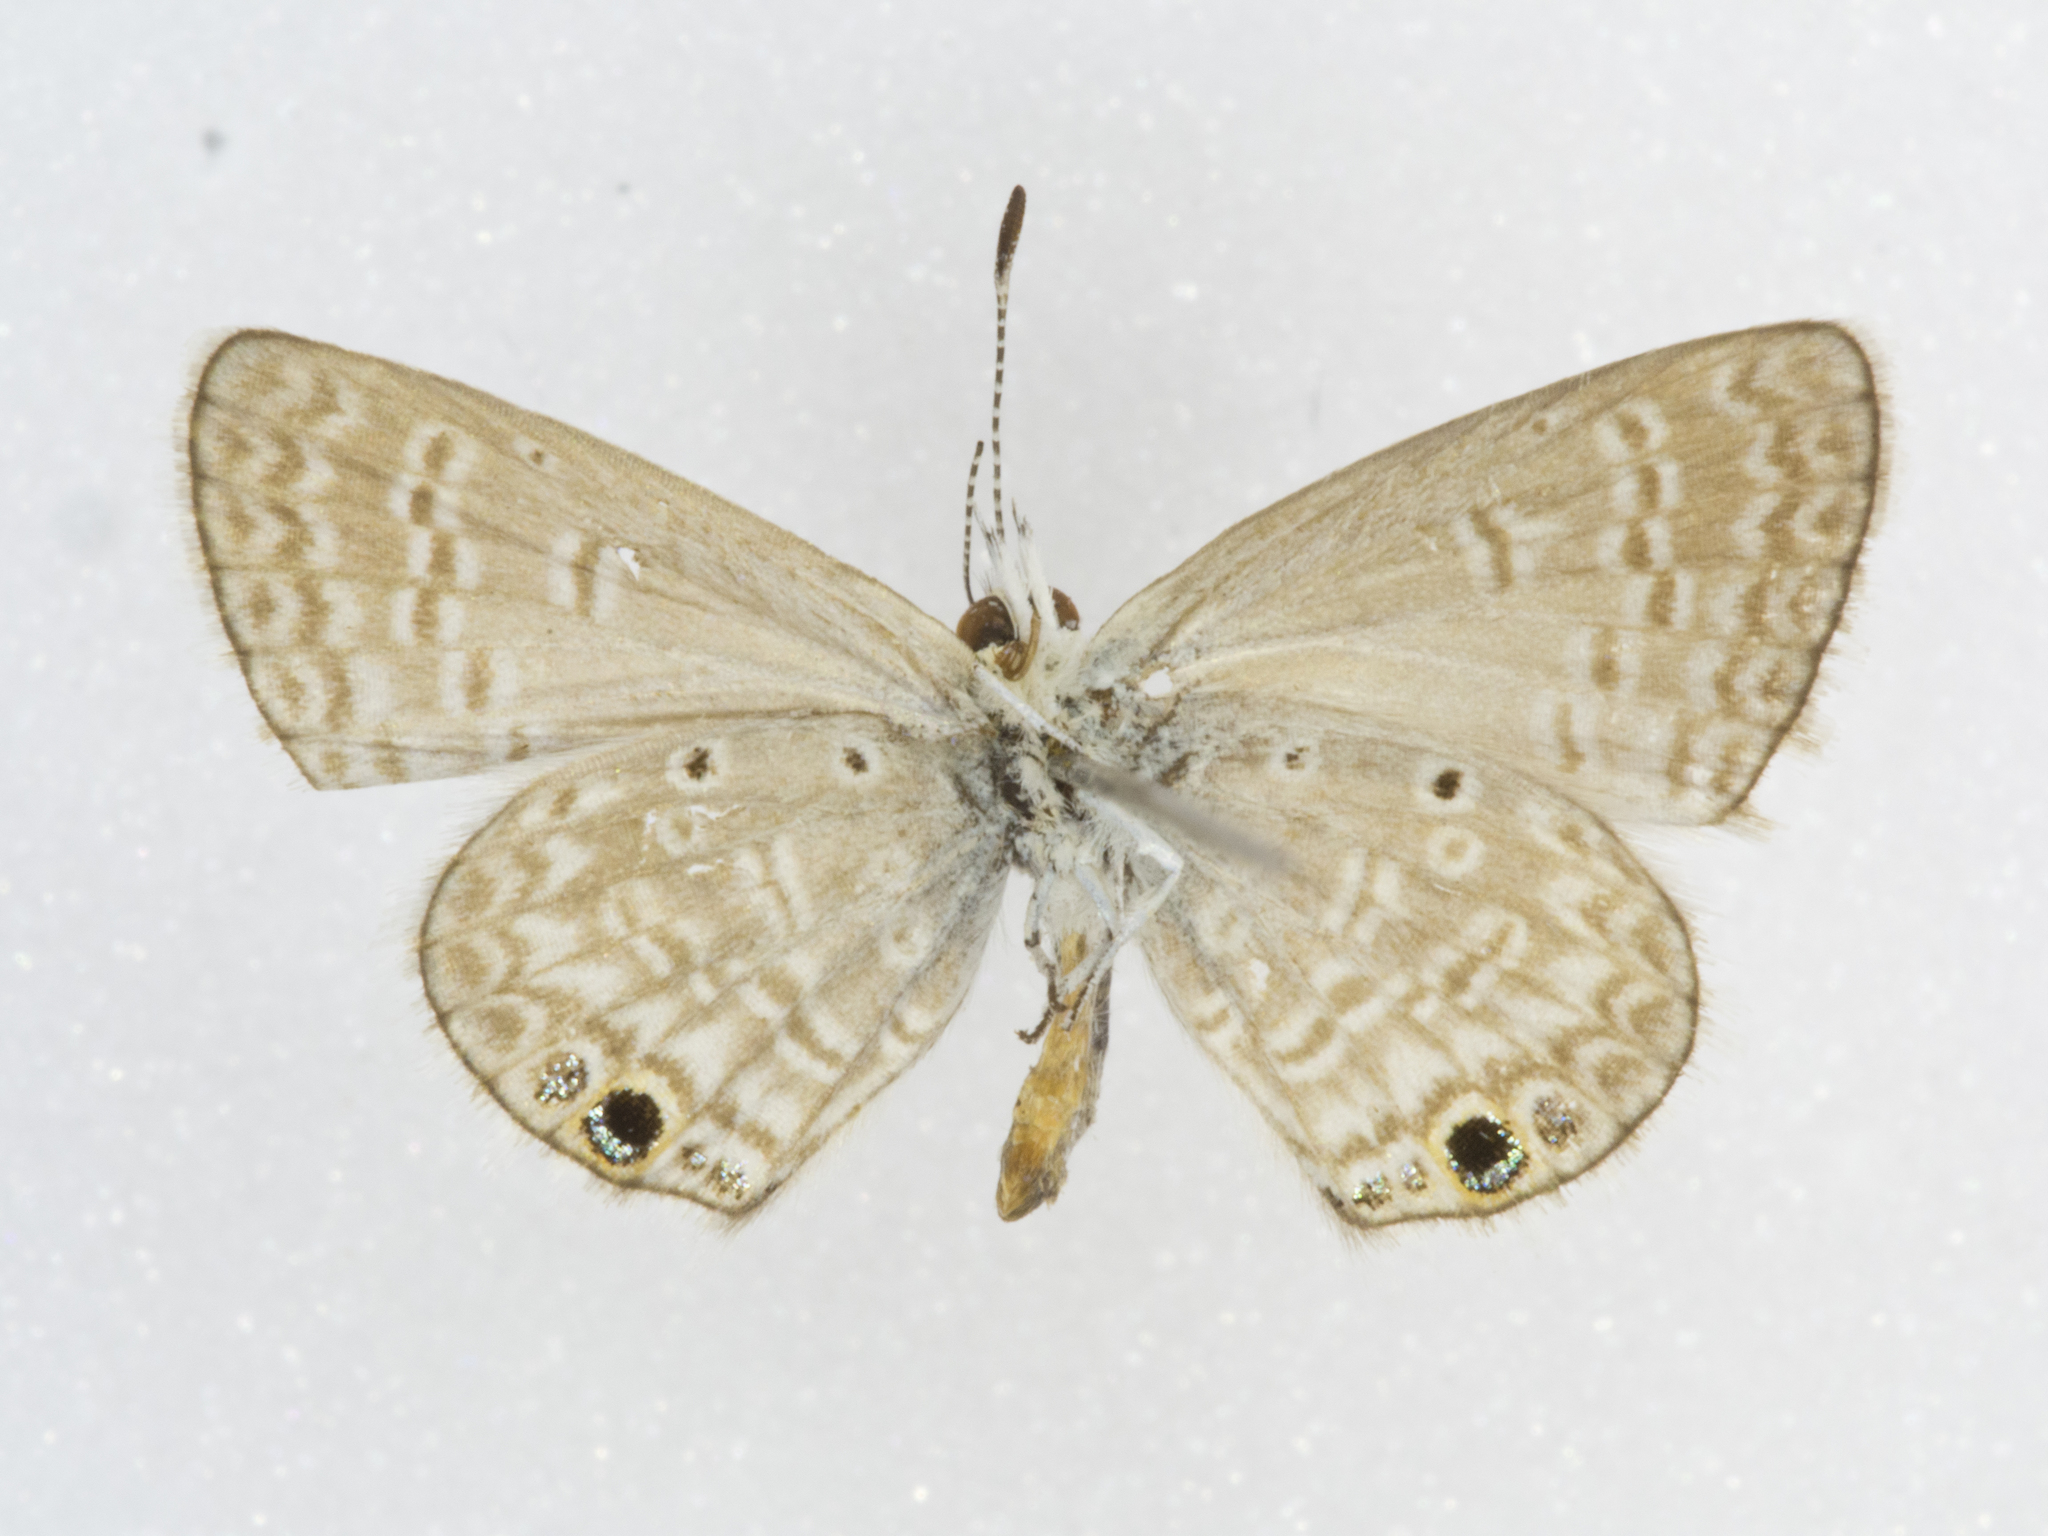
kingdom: Animalia
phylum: Arthropoda
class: Insecta
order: Lepidoptera
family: Lycaenidae
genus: Echinargus
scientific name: Echinargus isola
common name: Reakirt's blue
